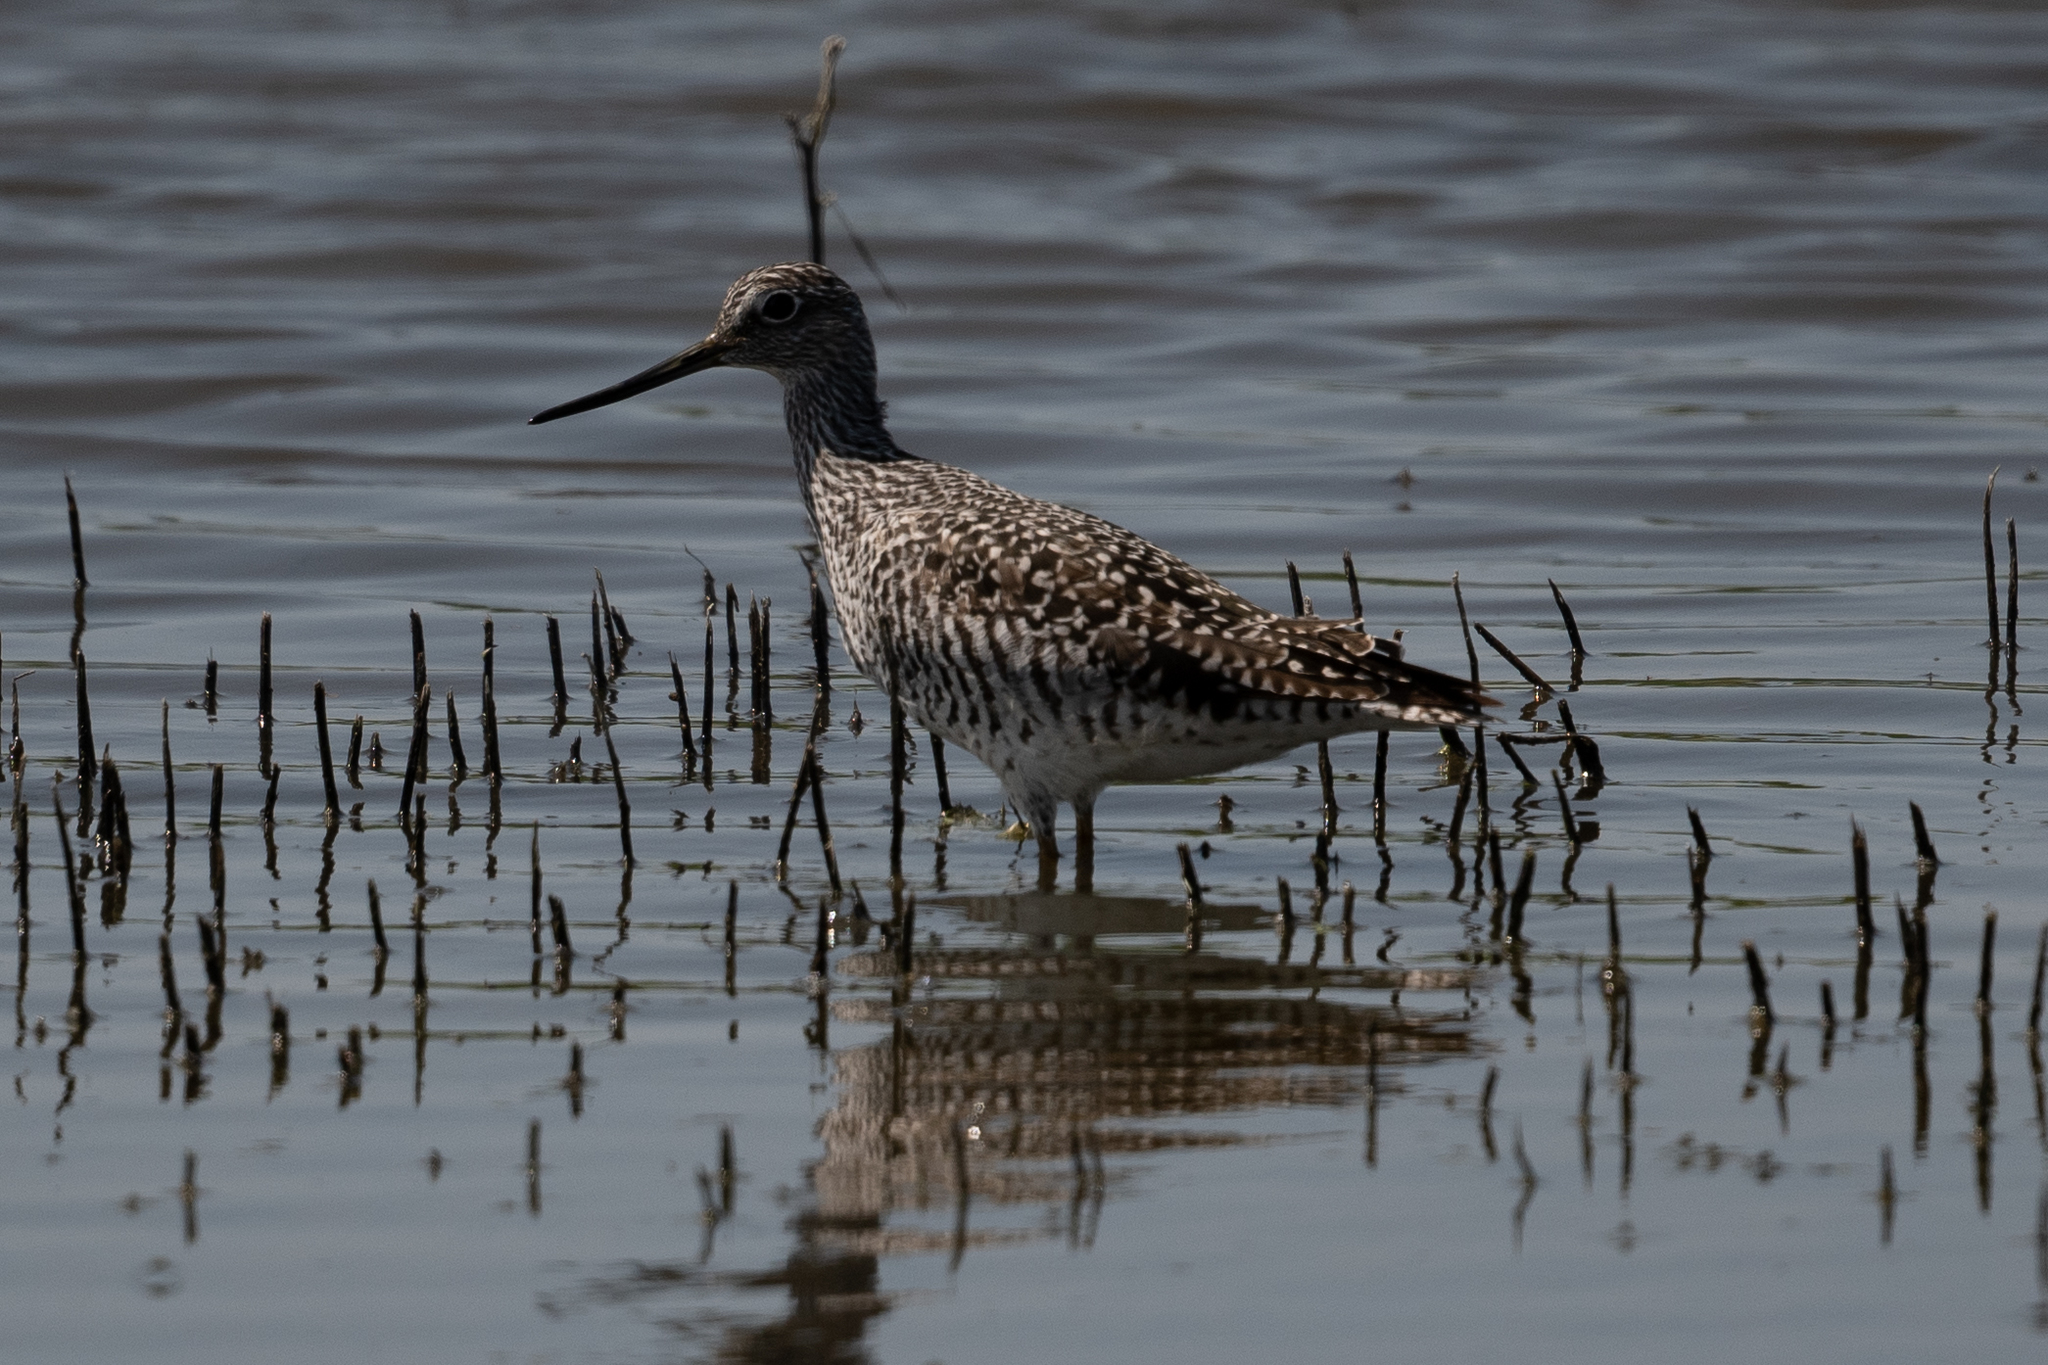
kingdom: Animalia
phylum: Chordata
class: Aves
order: Charadriiformes
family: Scolopacidae
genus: Tringa
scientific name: Tringa melanoleuca
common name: Greater yellowlegs
